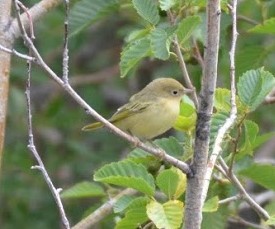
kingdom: Animalia
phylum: Chordata
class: Aves
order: Passeriformes
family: Parulidae
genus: Setophaga
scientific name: Setophaga petechia
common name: Yellow warbler
